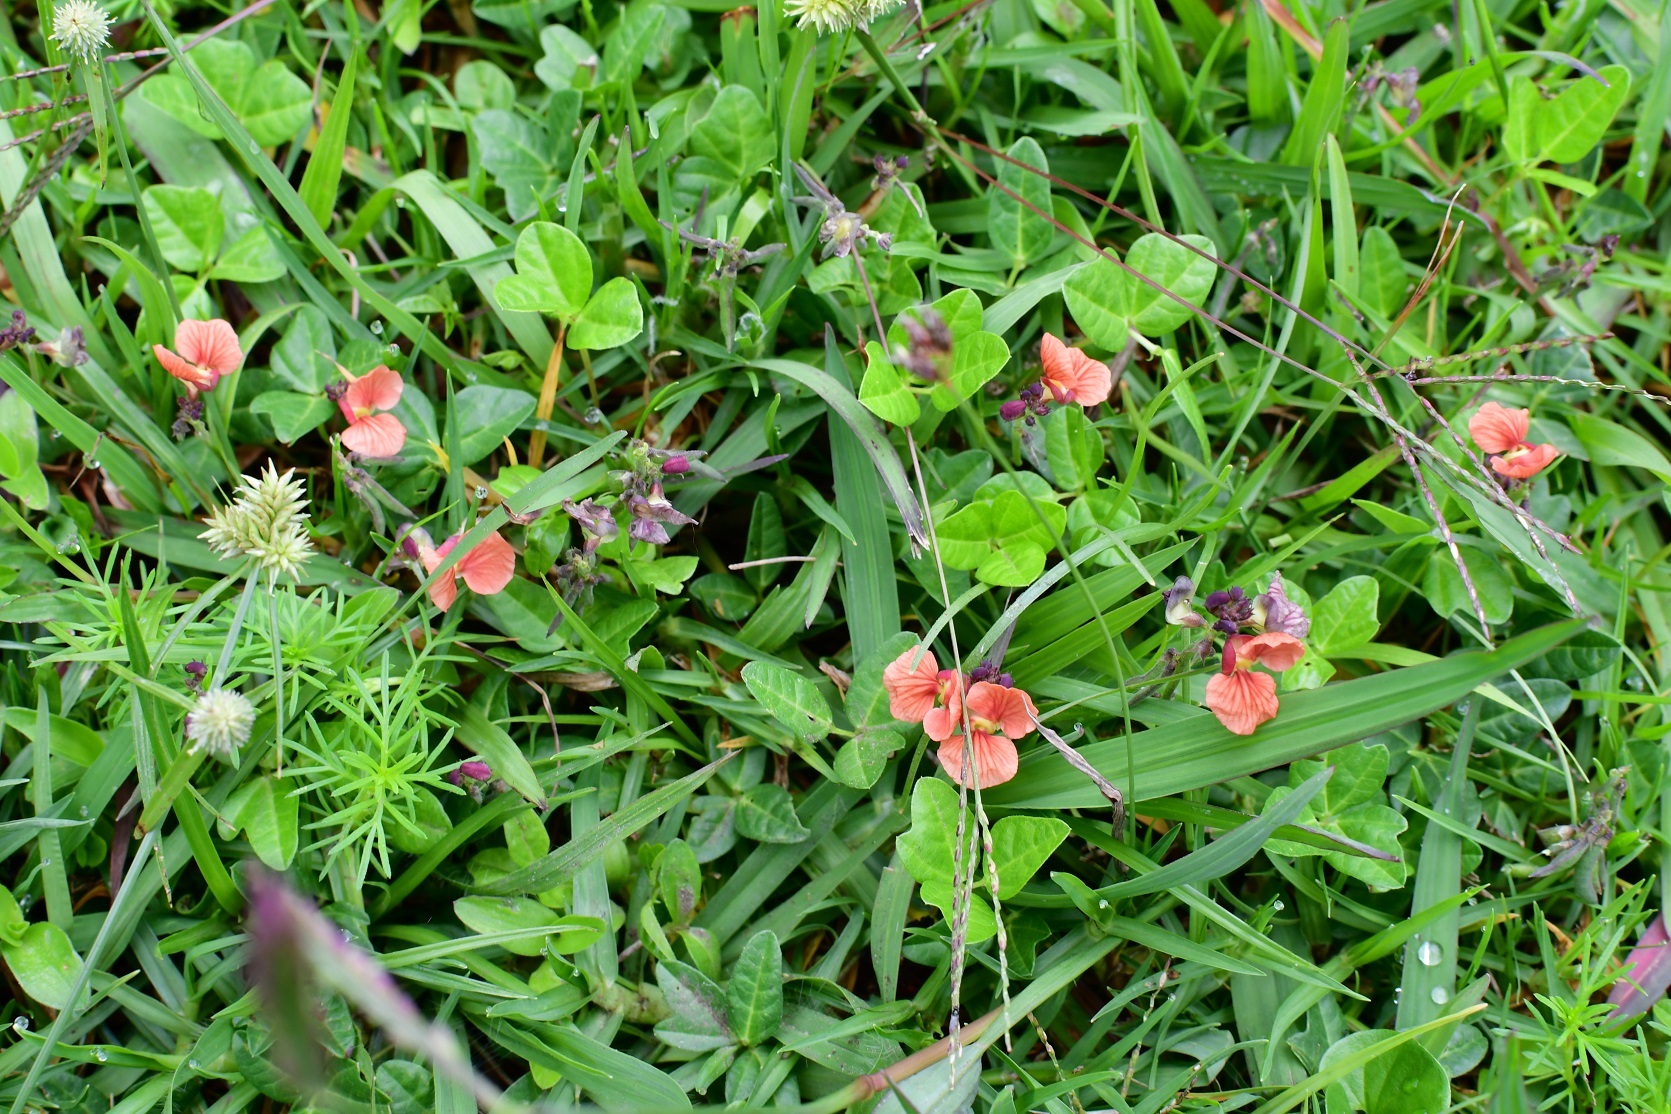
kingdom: Plantae
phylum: Tracheophyta
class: Magnoliopsida
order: Fabales
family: Fabaceae
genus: Macroptilium
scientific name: Macroptilium gibbosifolium
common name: Variableleaf bushbean
